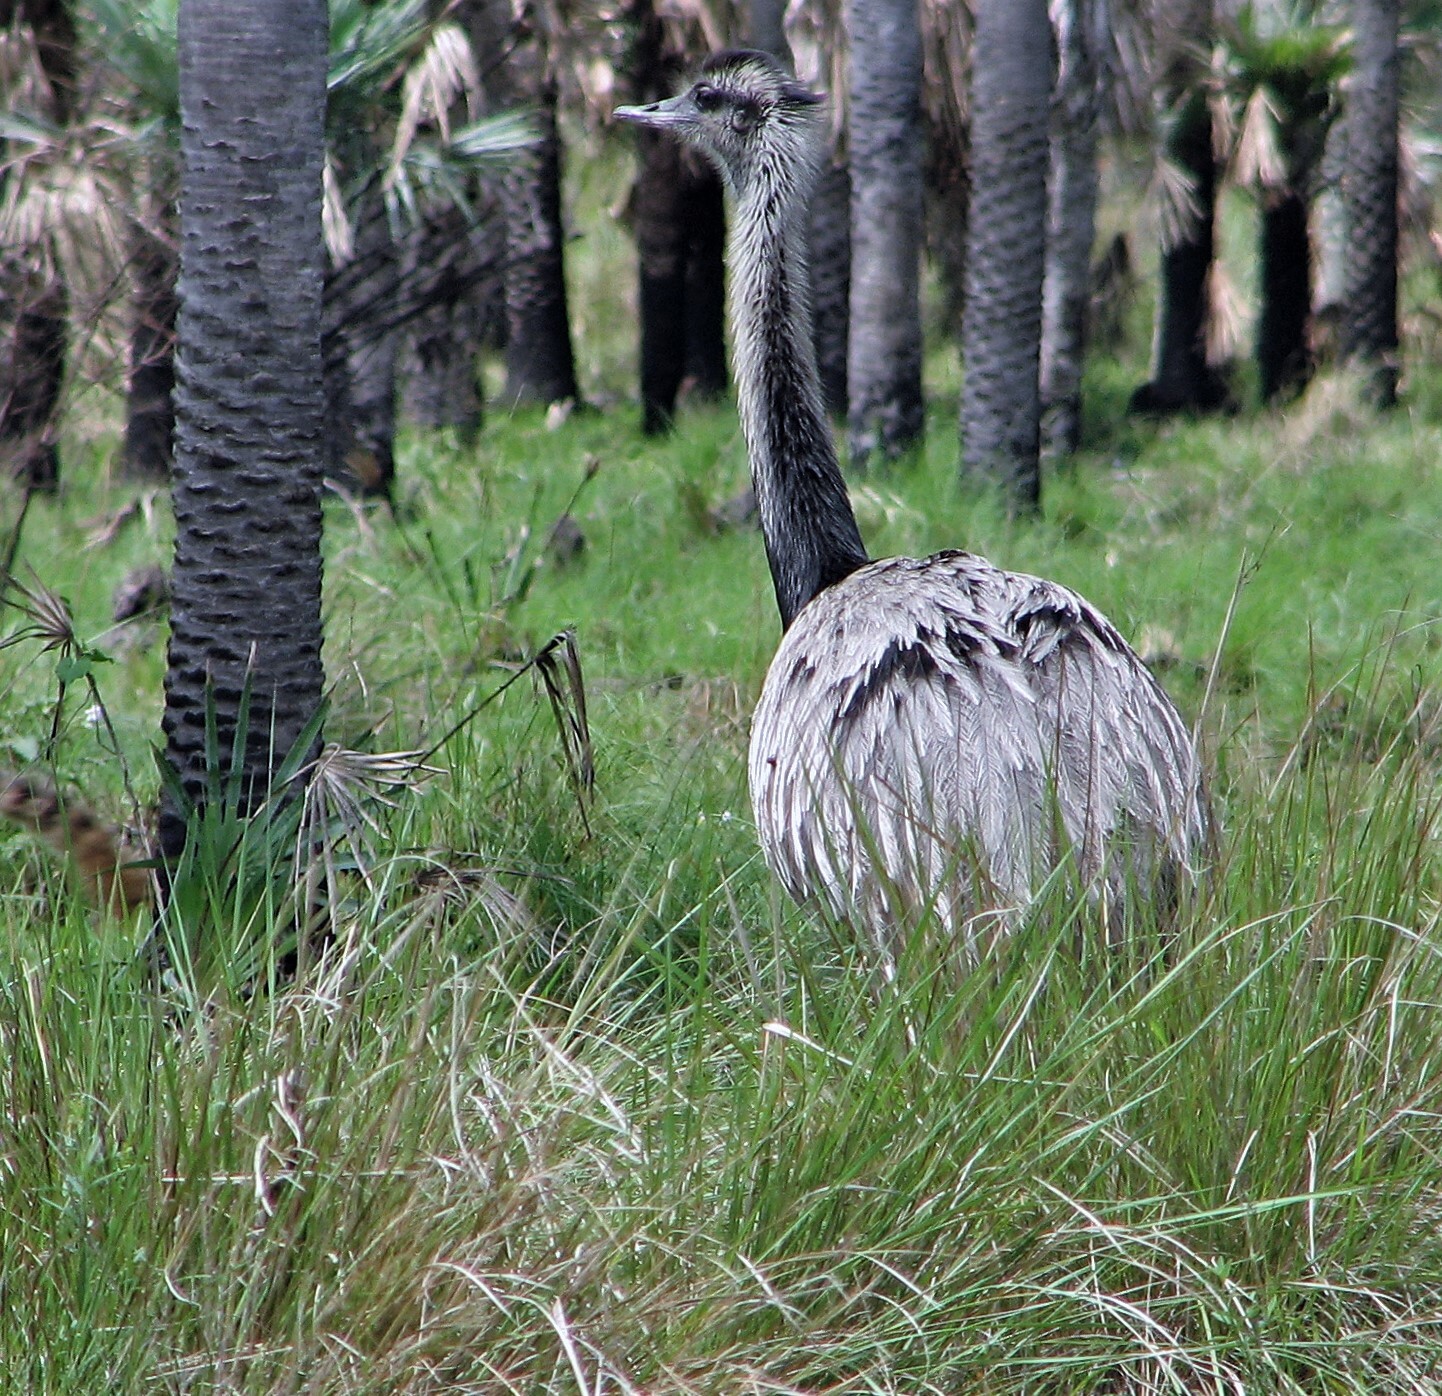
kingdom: Animalia
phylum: Chordata
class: Aves
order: Rheiformes
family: Rheidae
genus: Rhea
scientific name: Rhea americana
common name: Greater rhea
